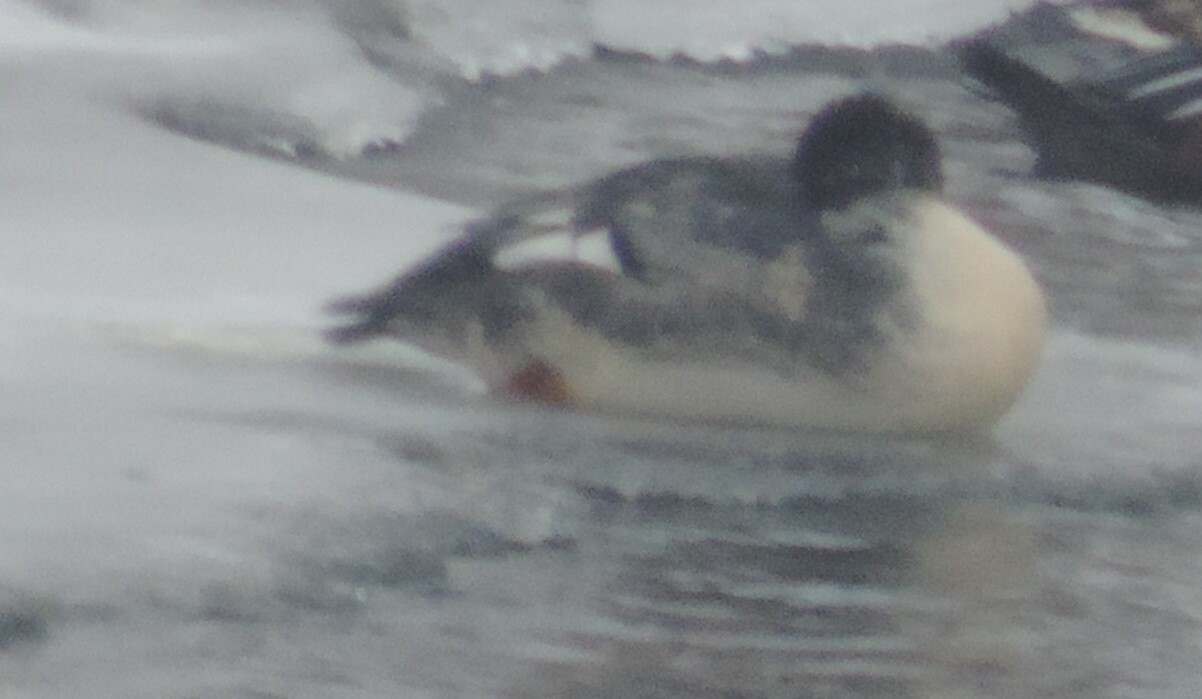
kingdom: Animalia
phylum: Chordata
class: Aves
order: Anseriformes
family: Anatidae
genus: Mergus
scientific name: Mergus merganser
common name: Common merganser
